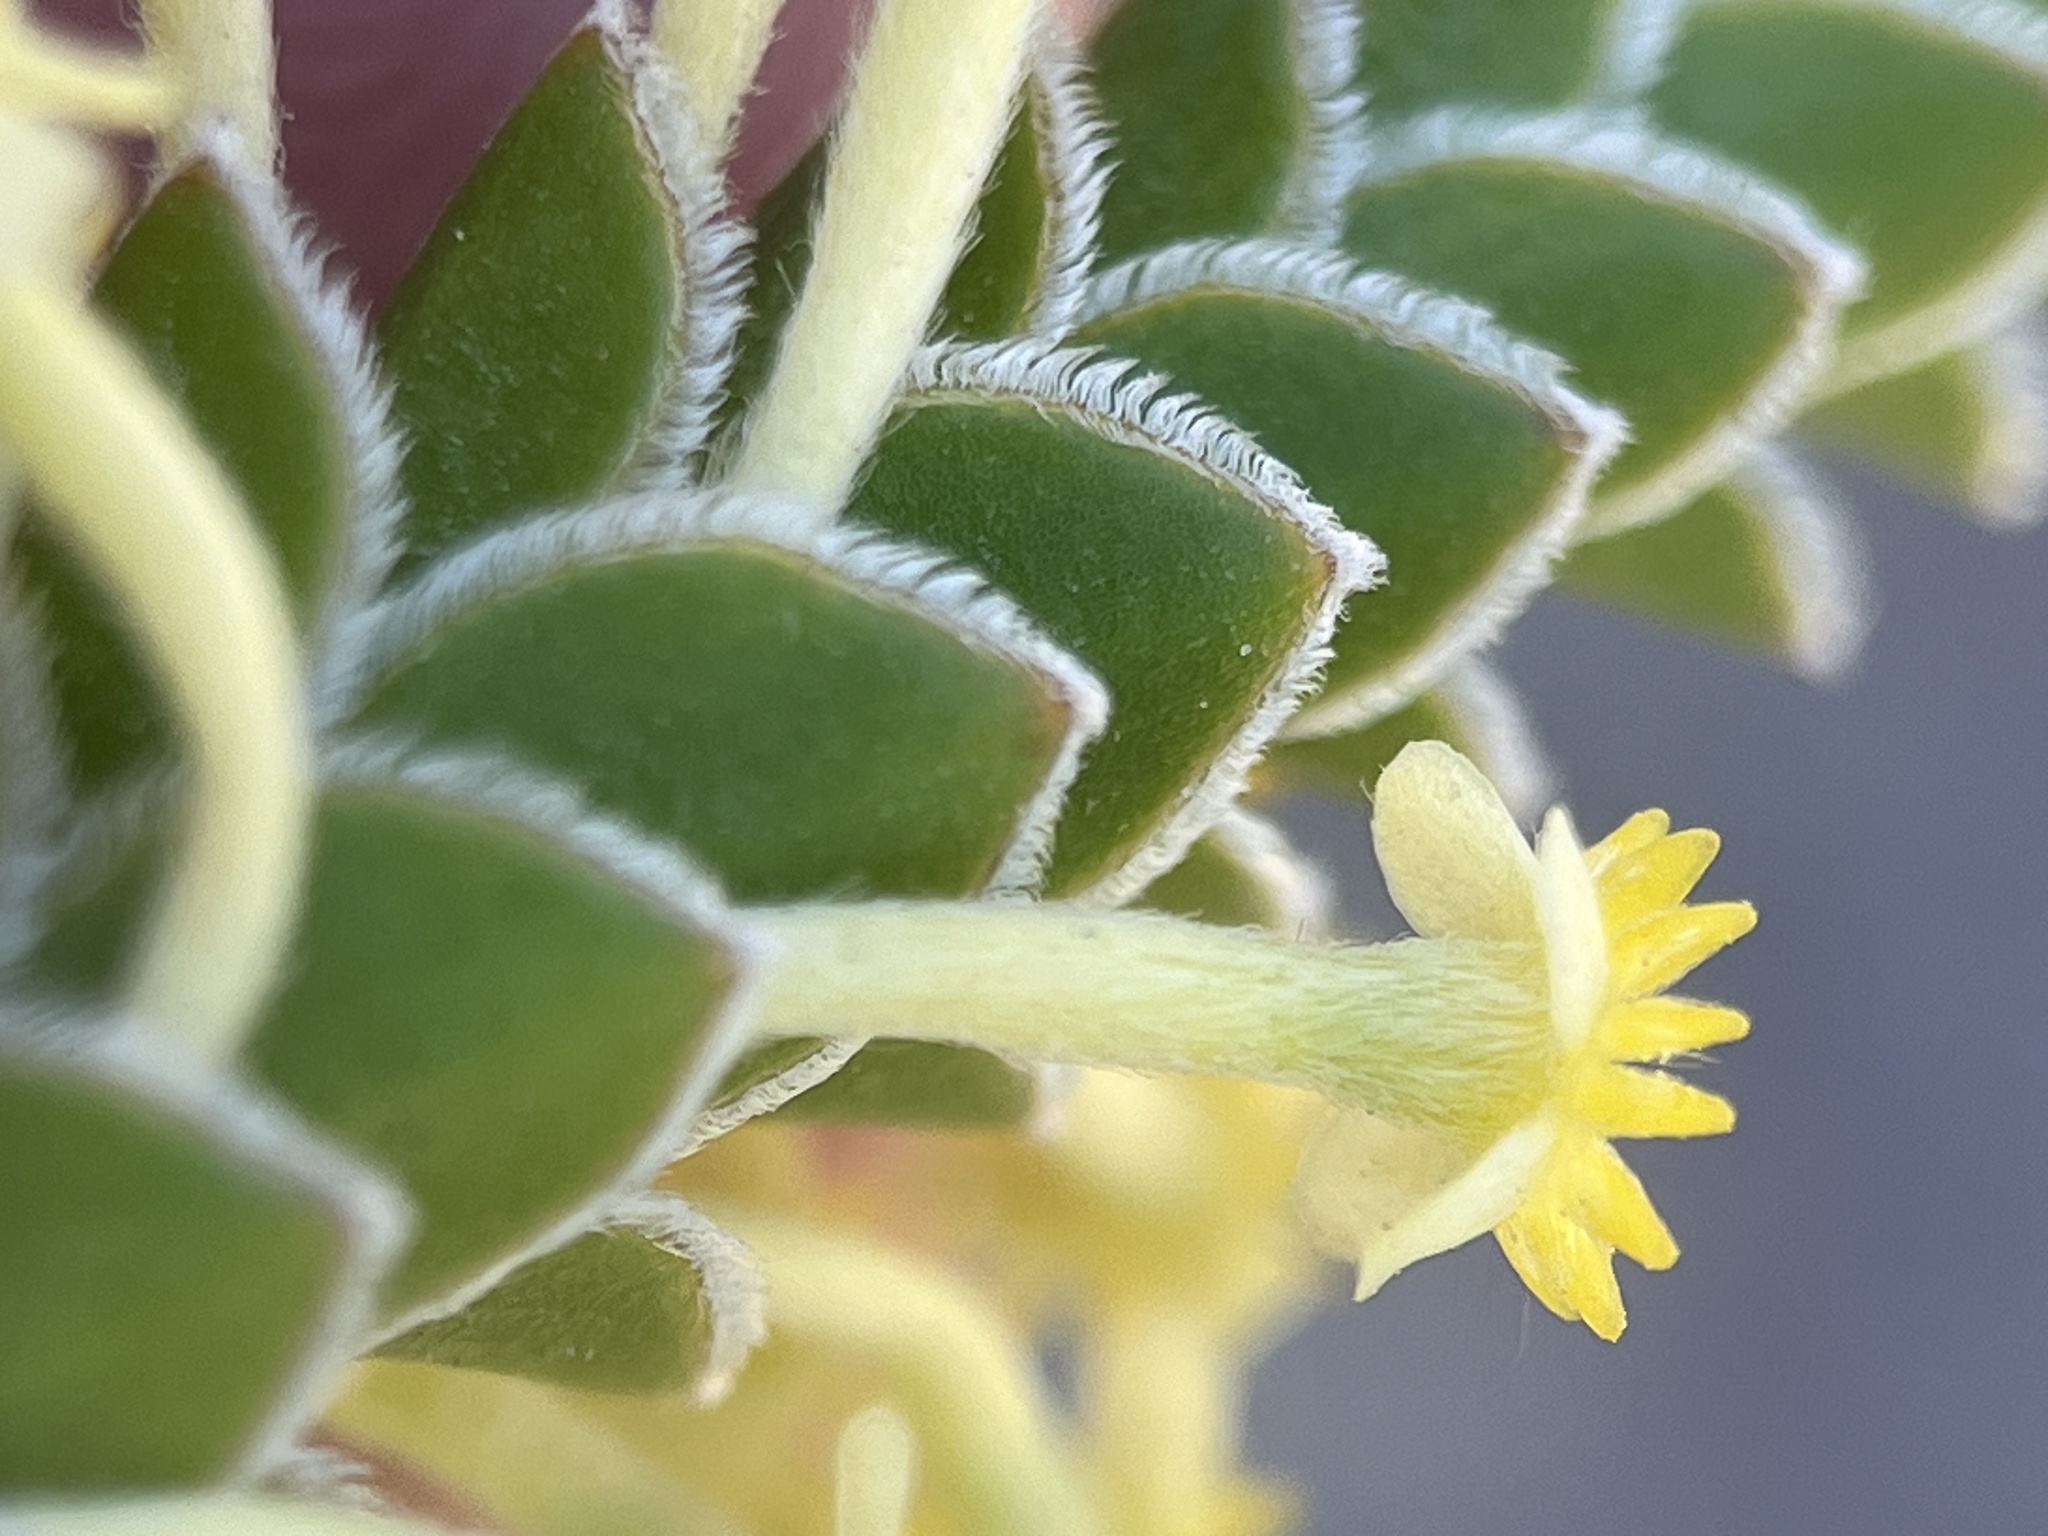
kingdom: Plantae
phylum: Tracheophyta
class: Magnoliopsida
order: Malvales
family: Thymelaeaceae
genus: Struthiola
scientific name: Struthiola argentea
